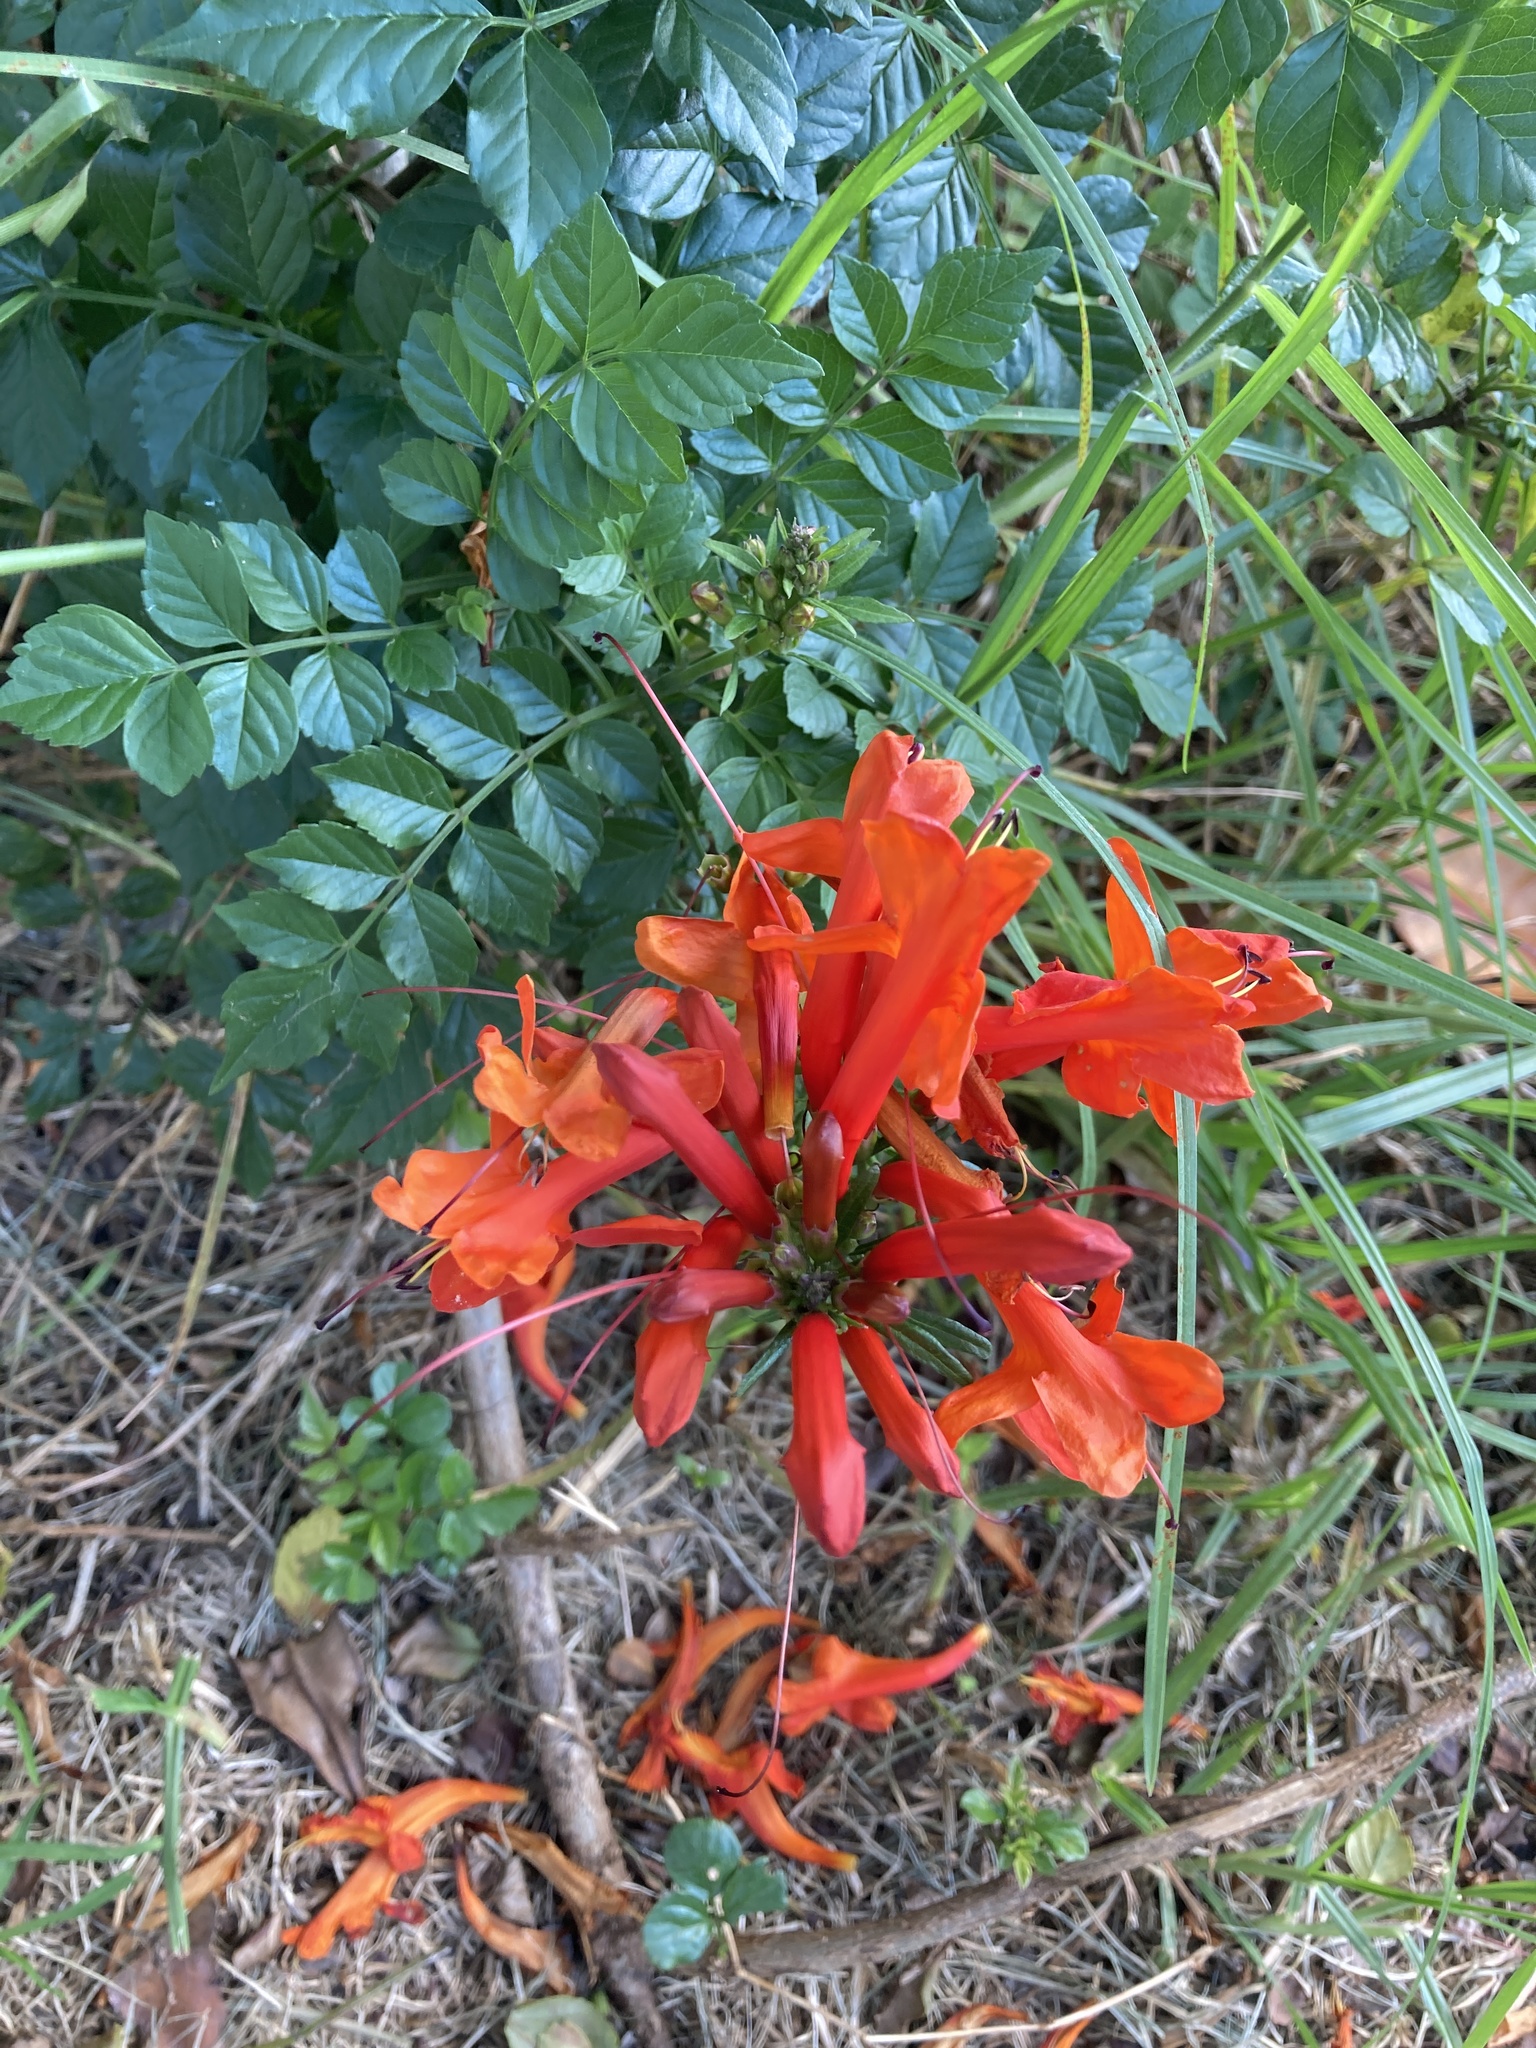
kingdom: Plantae
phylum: Tracheophyta
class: Magnoliopsida
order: Lamiales
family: Bignoniaceae
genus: Tecomaria
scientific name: Tecomaria capensis
